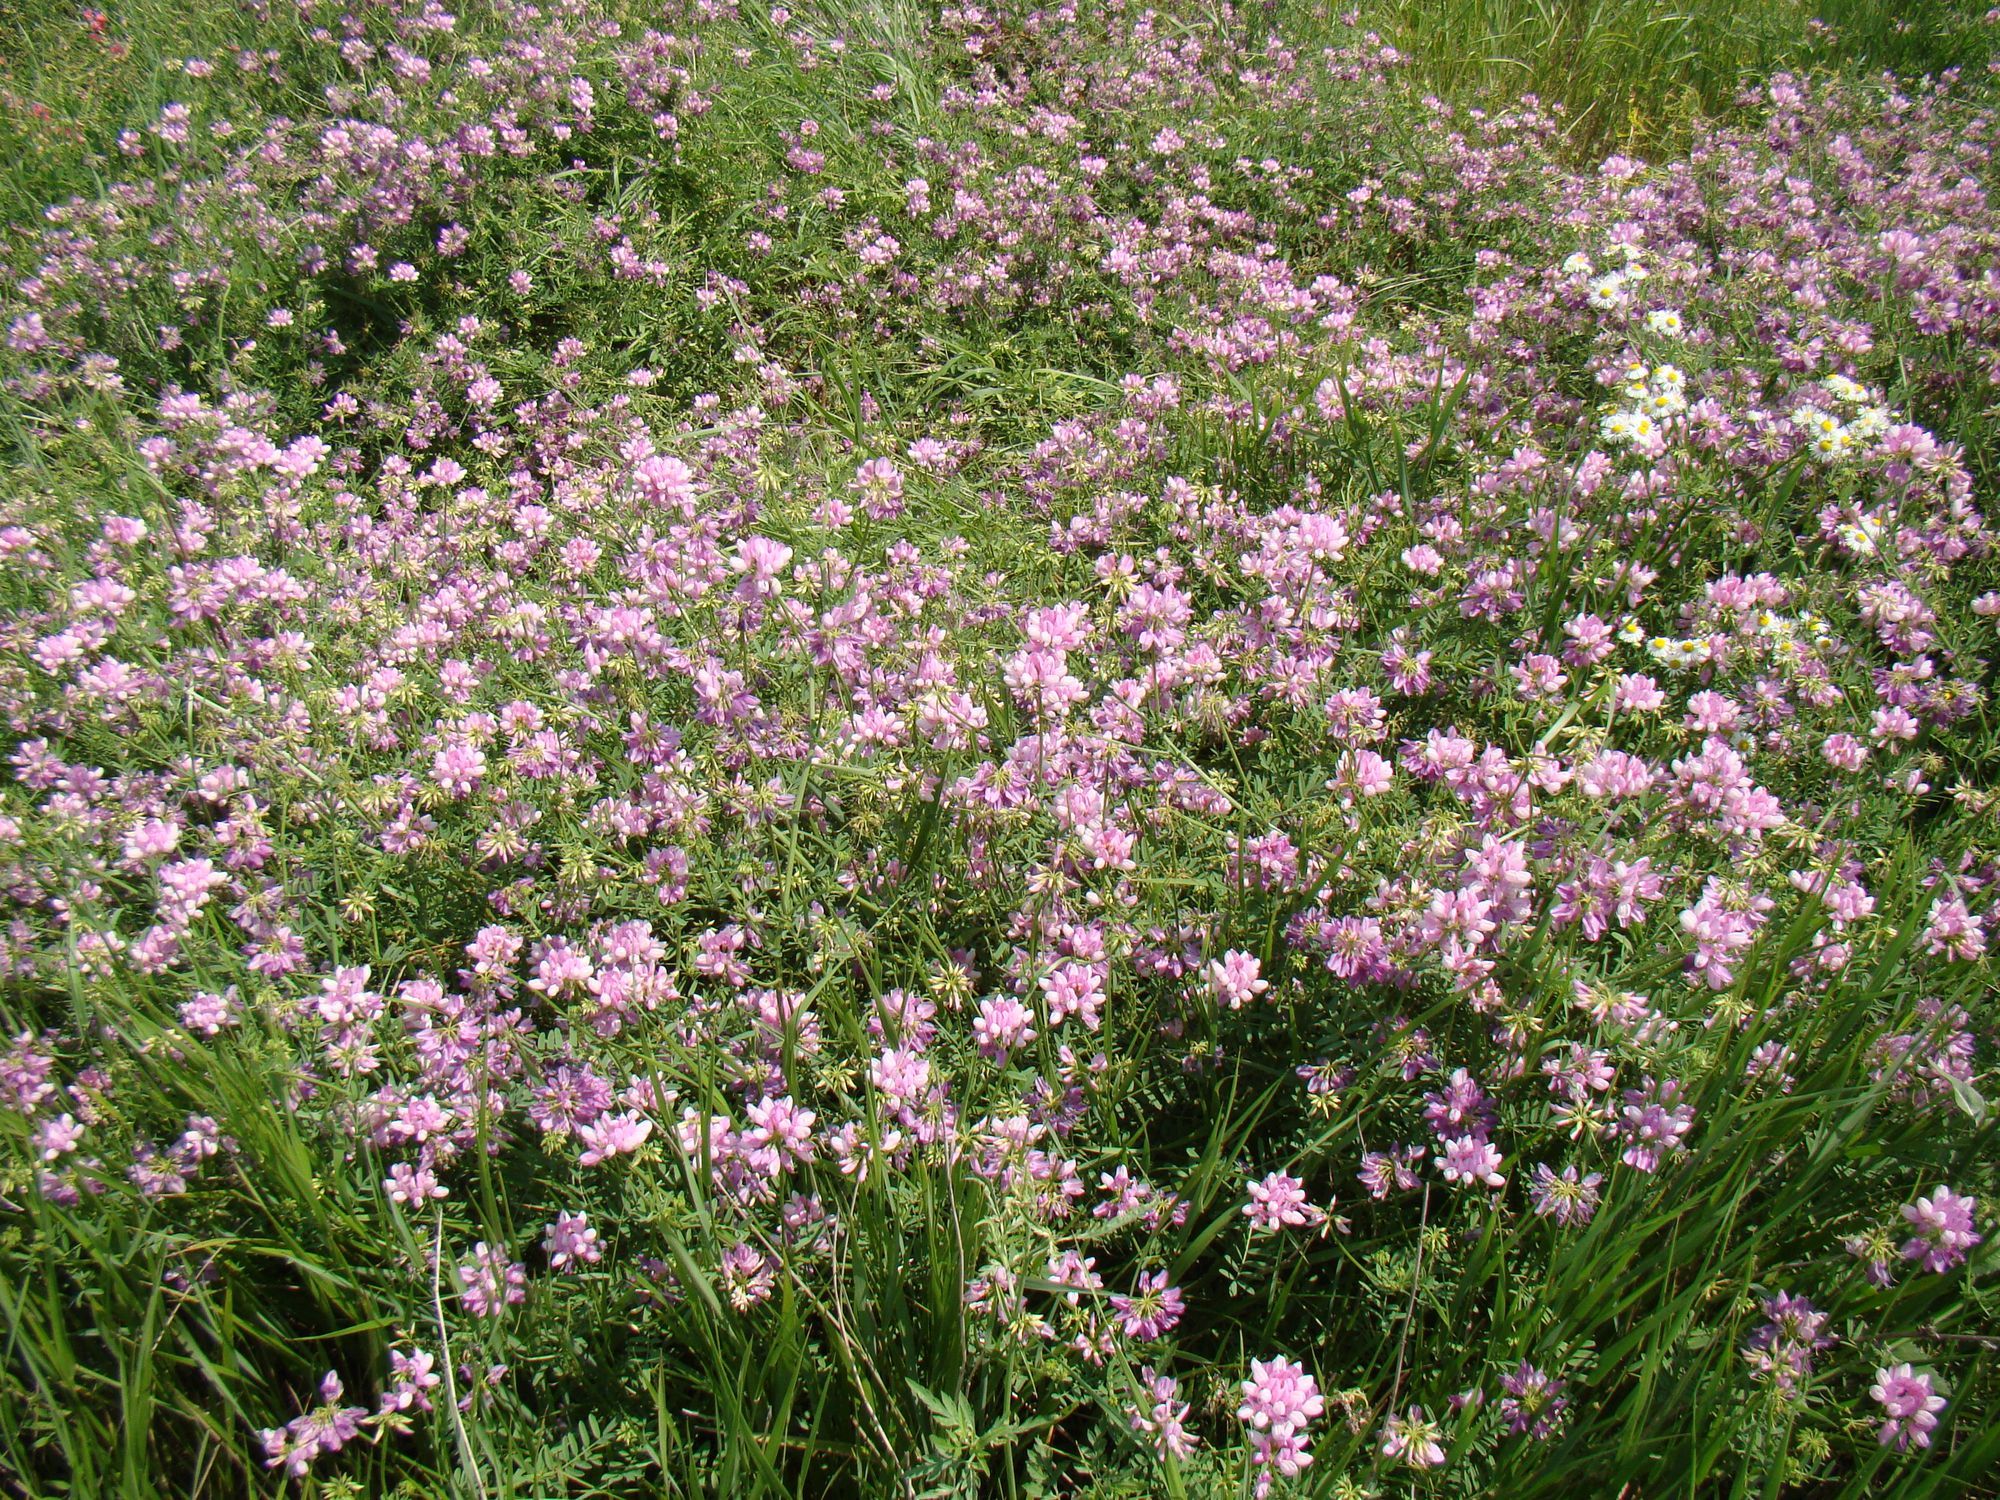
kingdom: Plantae
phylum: Tracheophyta
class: Magnoliopsida
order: Fabales
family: Fabaceae
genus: Coronilla
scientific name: Coronilla varia
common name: Crownvetch
